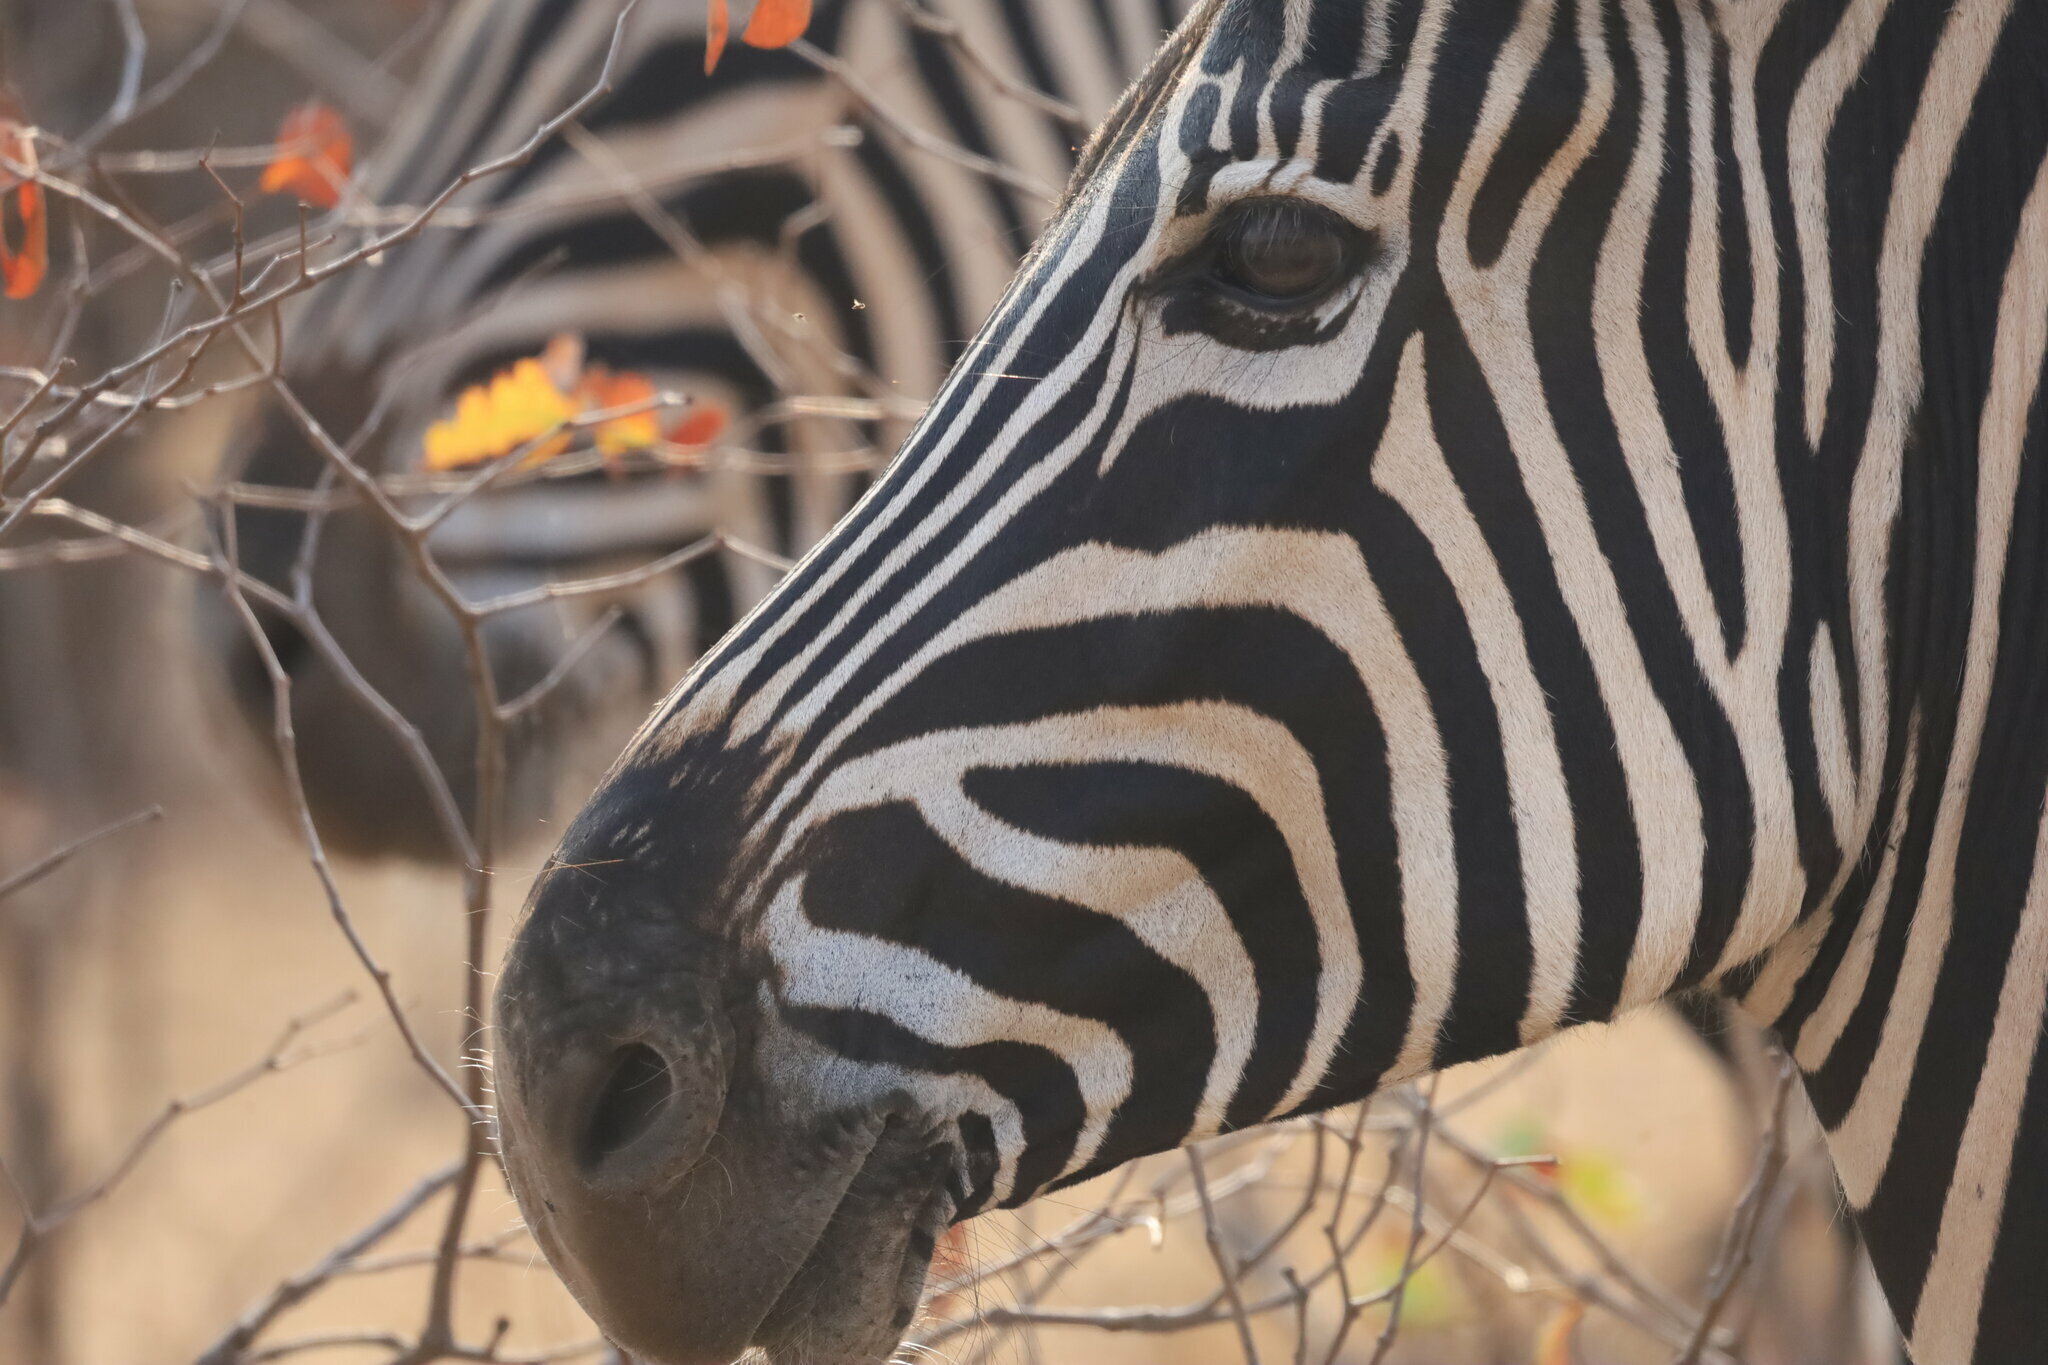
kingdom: Animalia
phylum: Chordata
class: Mammalia
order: Perissodactyla
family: Equidae
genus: Equus
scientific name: Equus quagga
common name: Plains zebra
